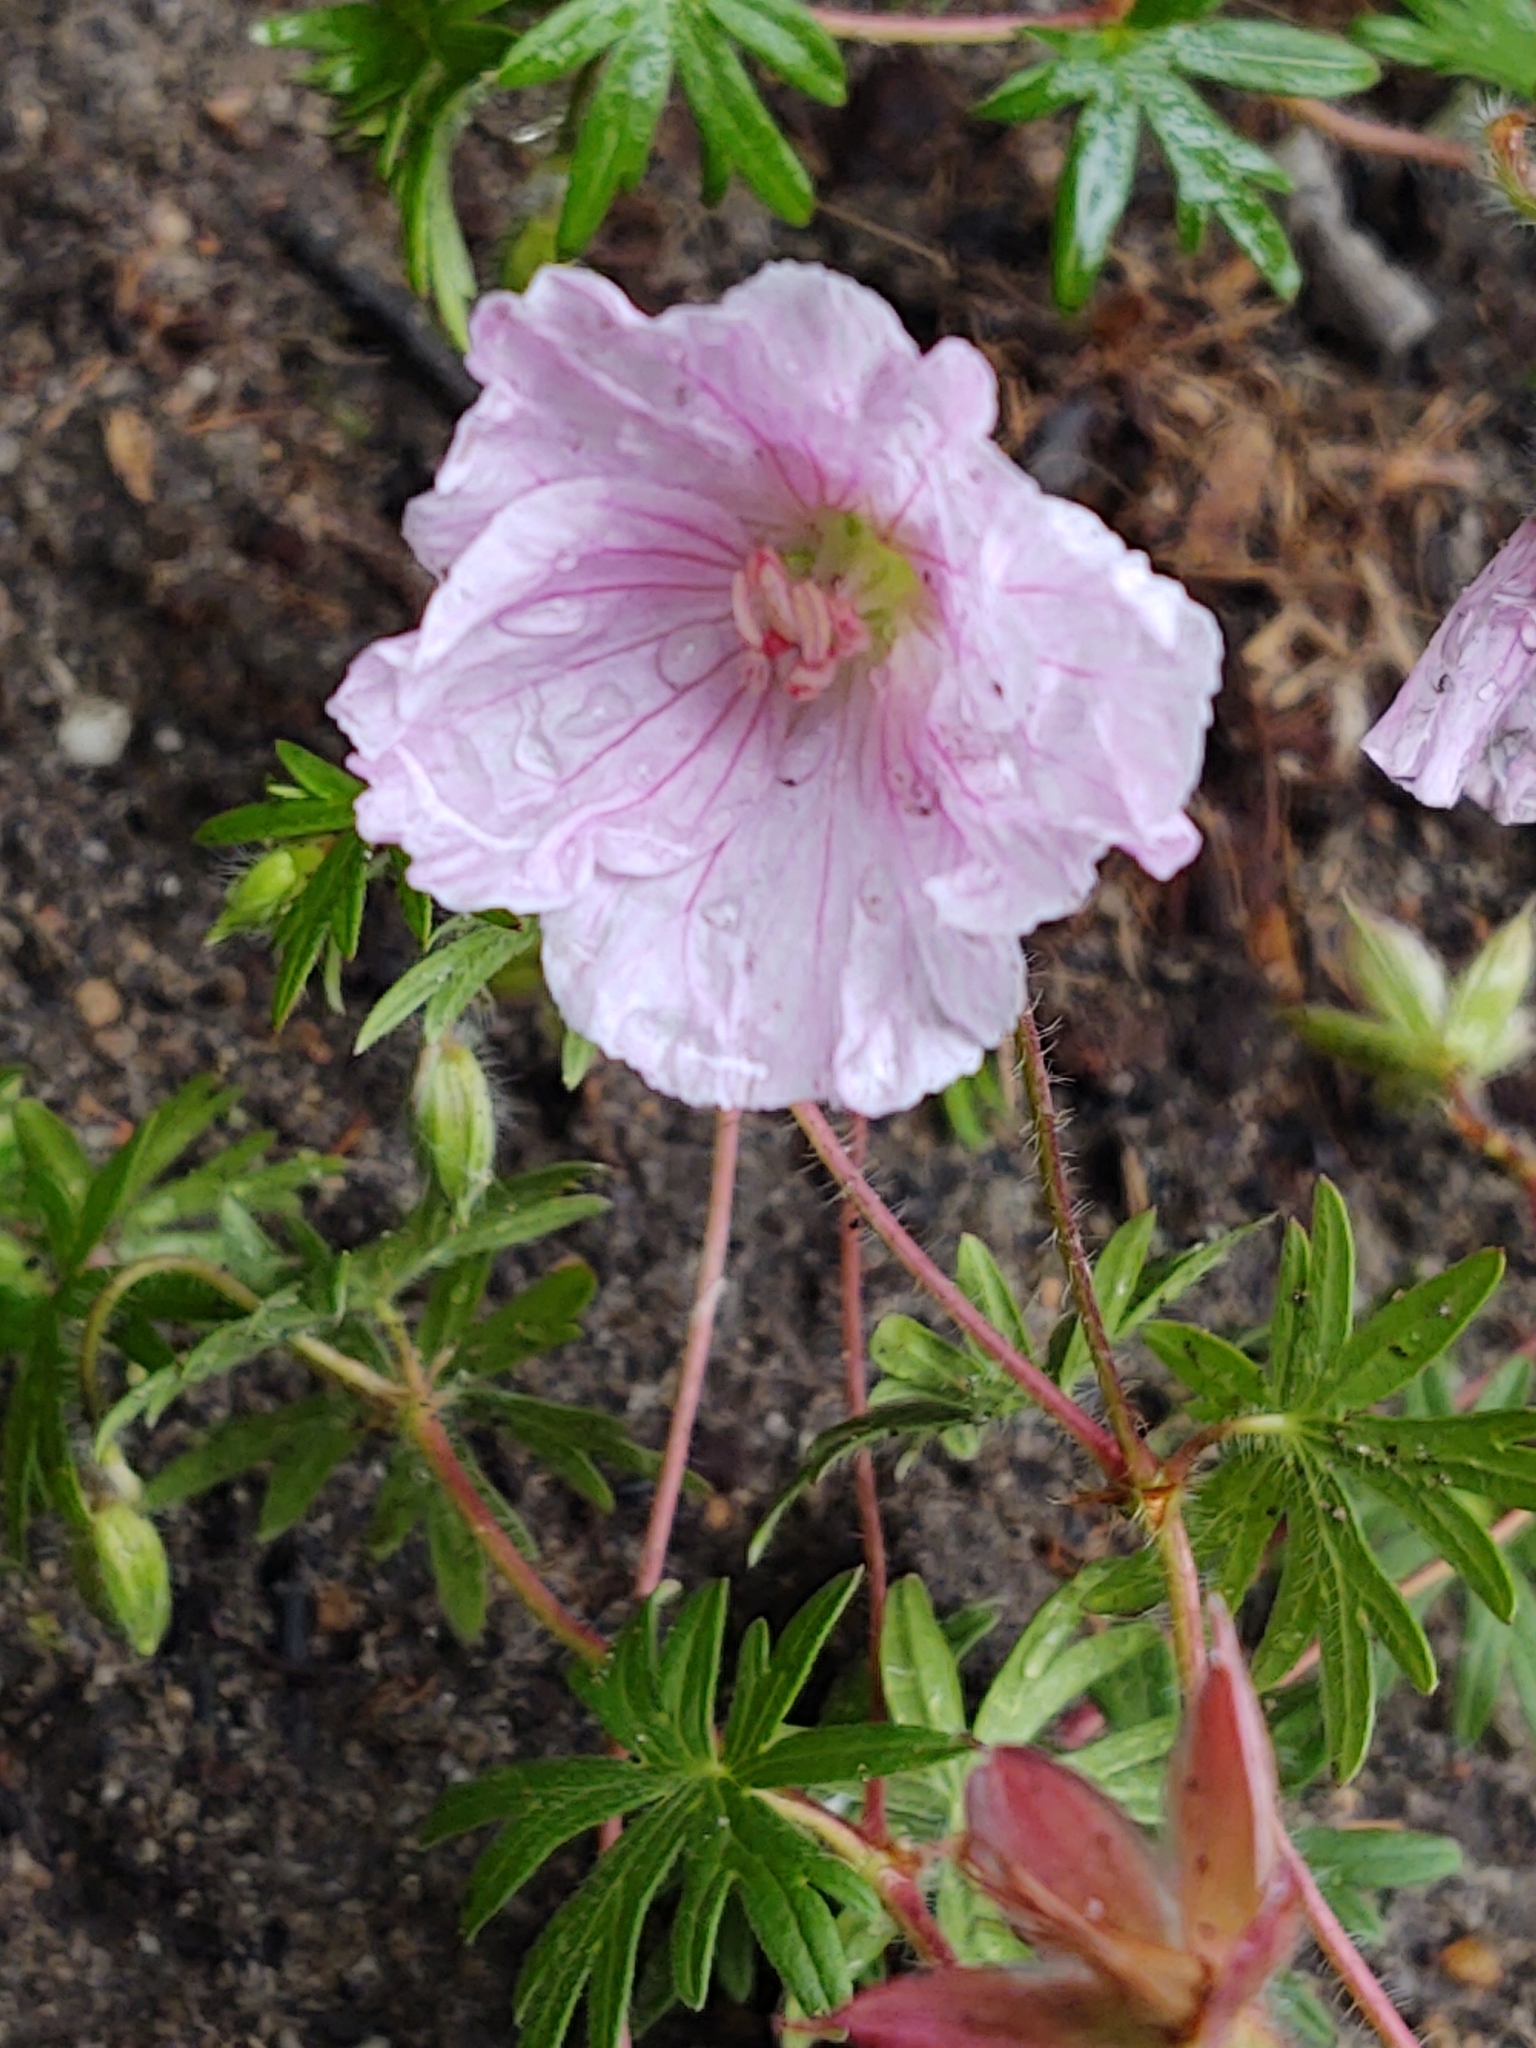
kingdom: Plantae
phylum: Tracheophyta
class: Magnoliopsida
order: Geraniales
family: Geraniaceae
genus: Geranium
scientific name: Geranium sanguineum
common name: Bloody crane's-bill
